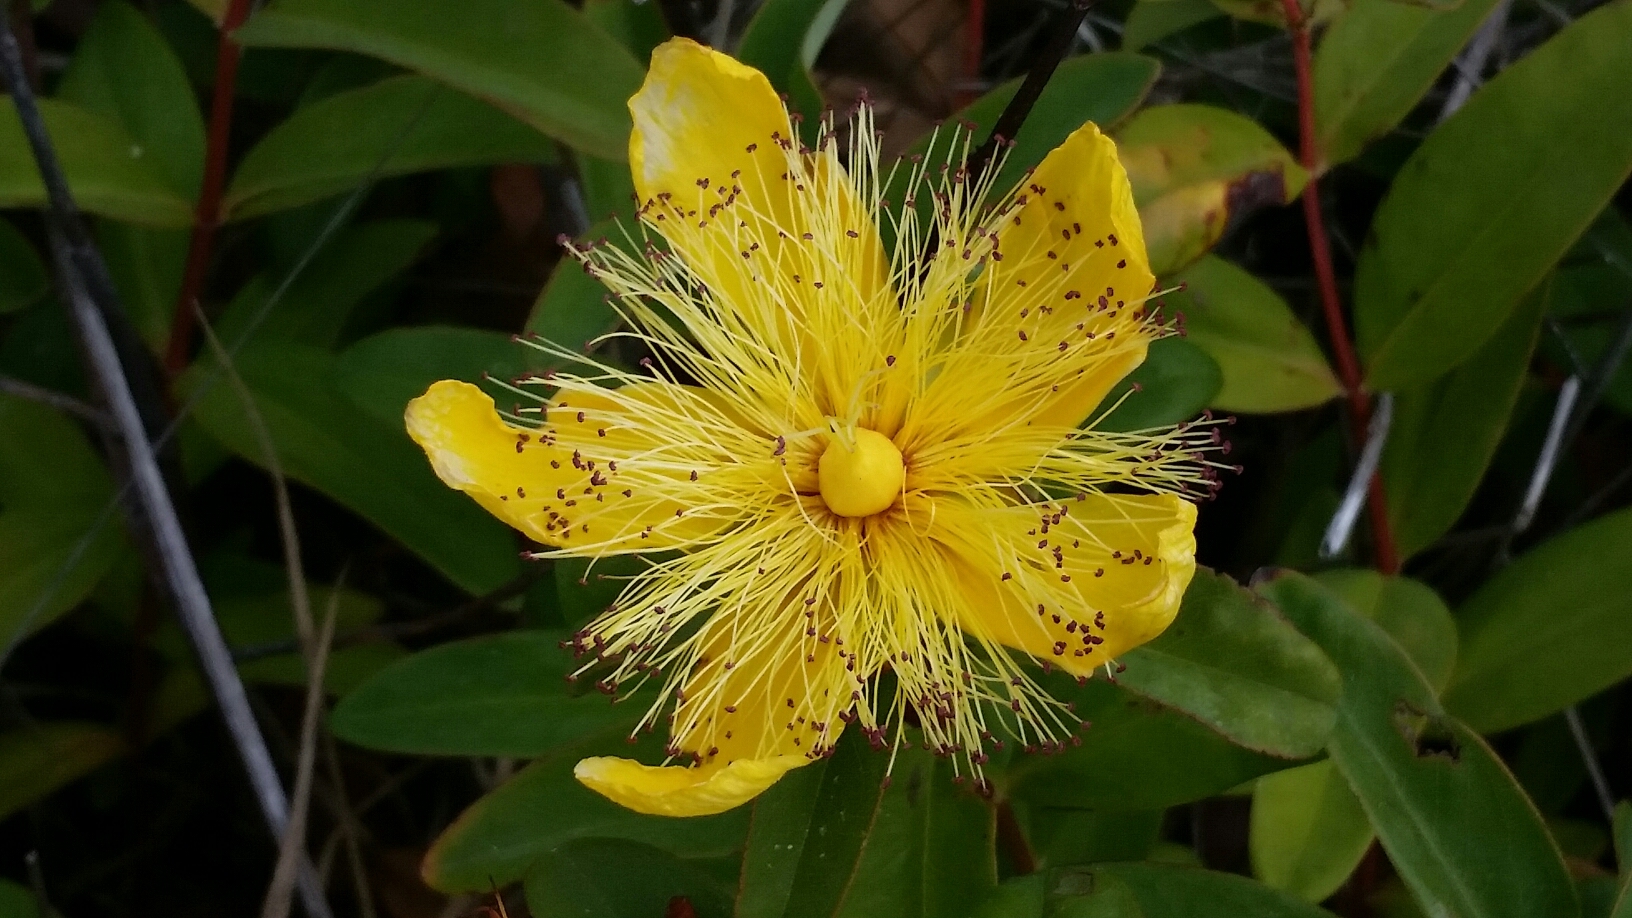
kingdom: Plantae
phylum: Tracheophyta
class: Magnoliopsida
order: Malpighiales
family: Hypericaceae
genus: Hypericum
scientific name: Hypericum calycinum
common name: Rose-of-sharon
